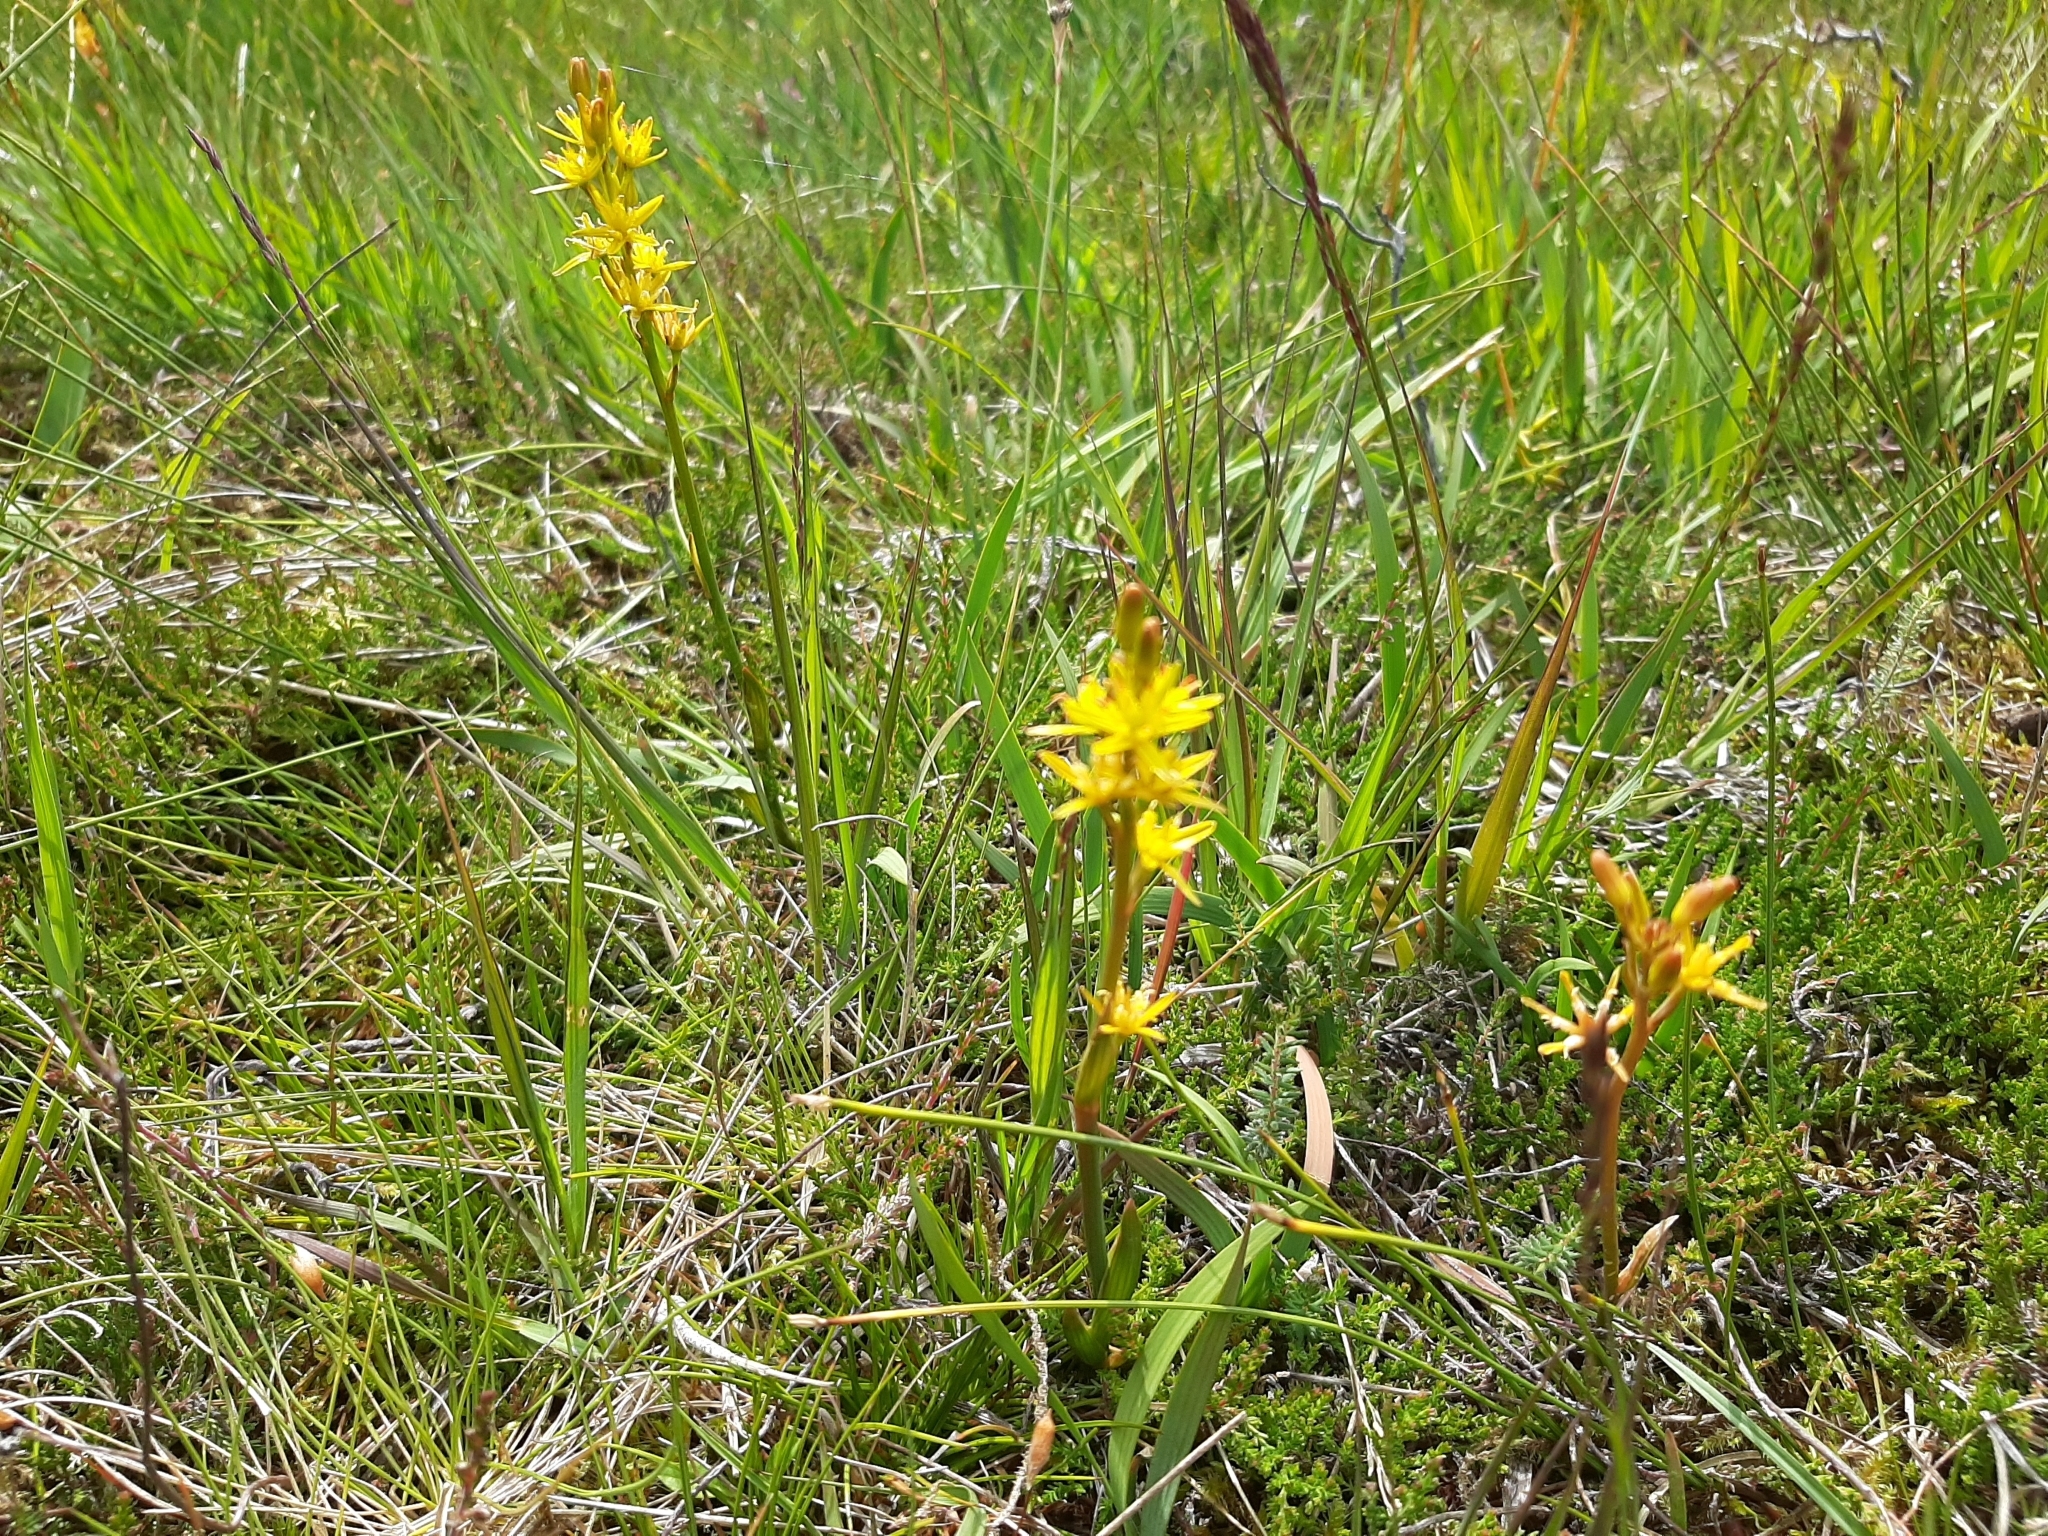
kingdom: Plantae
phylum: Tracheophyta
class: Liliopsida
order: Dioscoreales
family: Nartheciaceae
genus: Narthecium
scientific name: Narthecium ossifragum
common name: Bog asphodel
